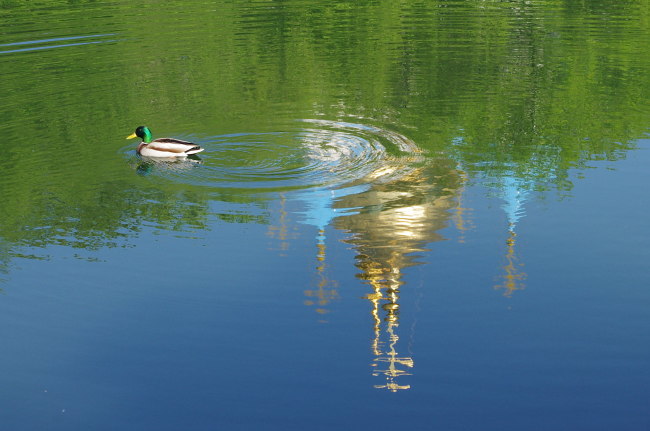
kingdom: Animalia
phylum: Chordata
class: Aves
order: Anseriformes
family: Anatidae
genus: Anas
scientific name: Anas platyrhynchos
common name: Mallard
